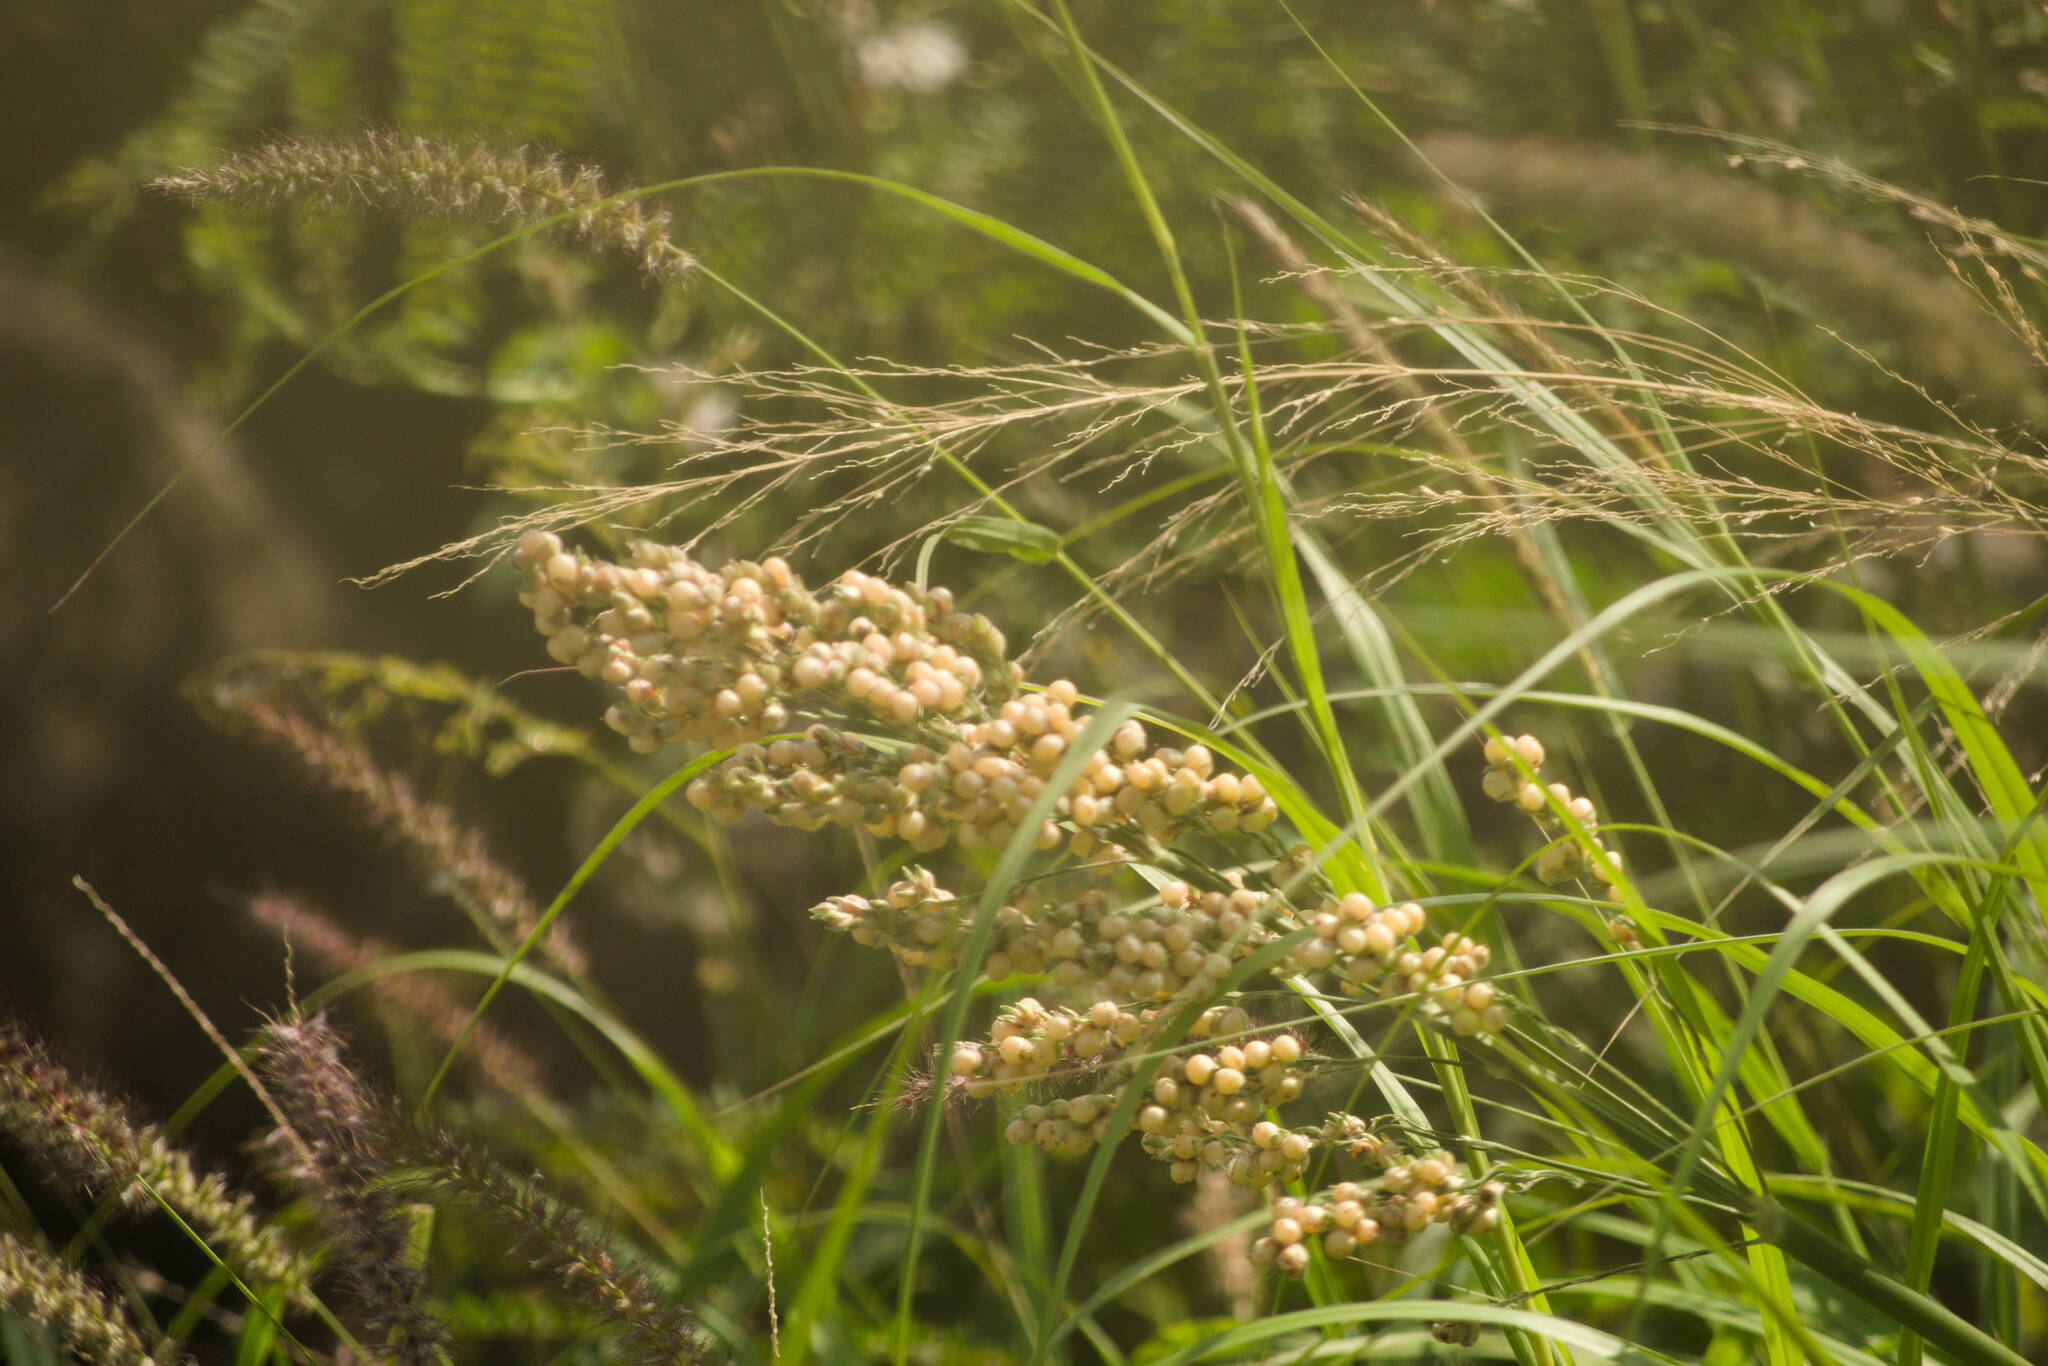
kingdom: Plantae
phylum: Tracheophyta
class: Liliopsida
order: Poales
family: Poaceae
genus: Sorghum
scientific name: Sorghum bicolor
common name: Sorghum
